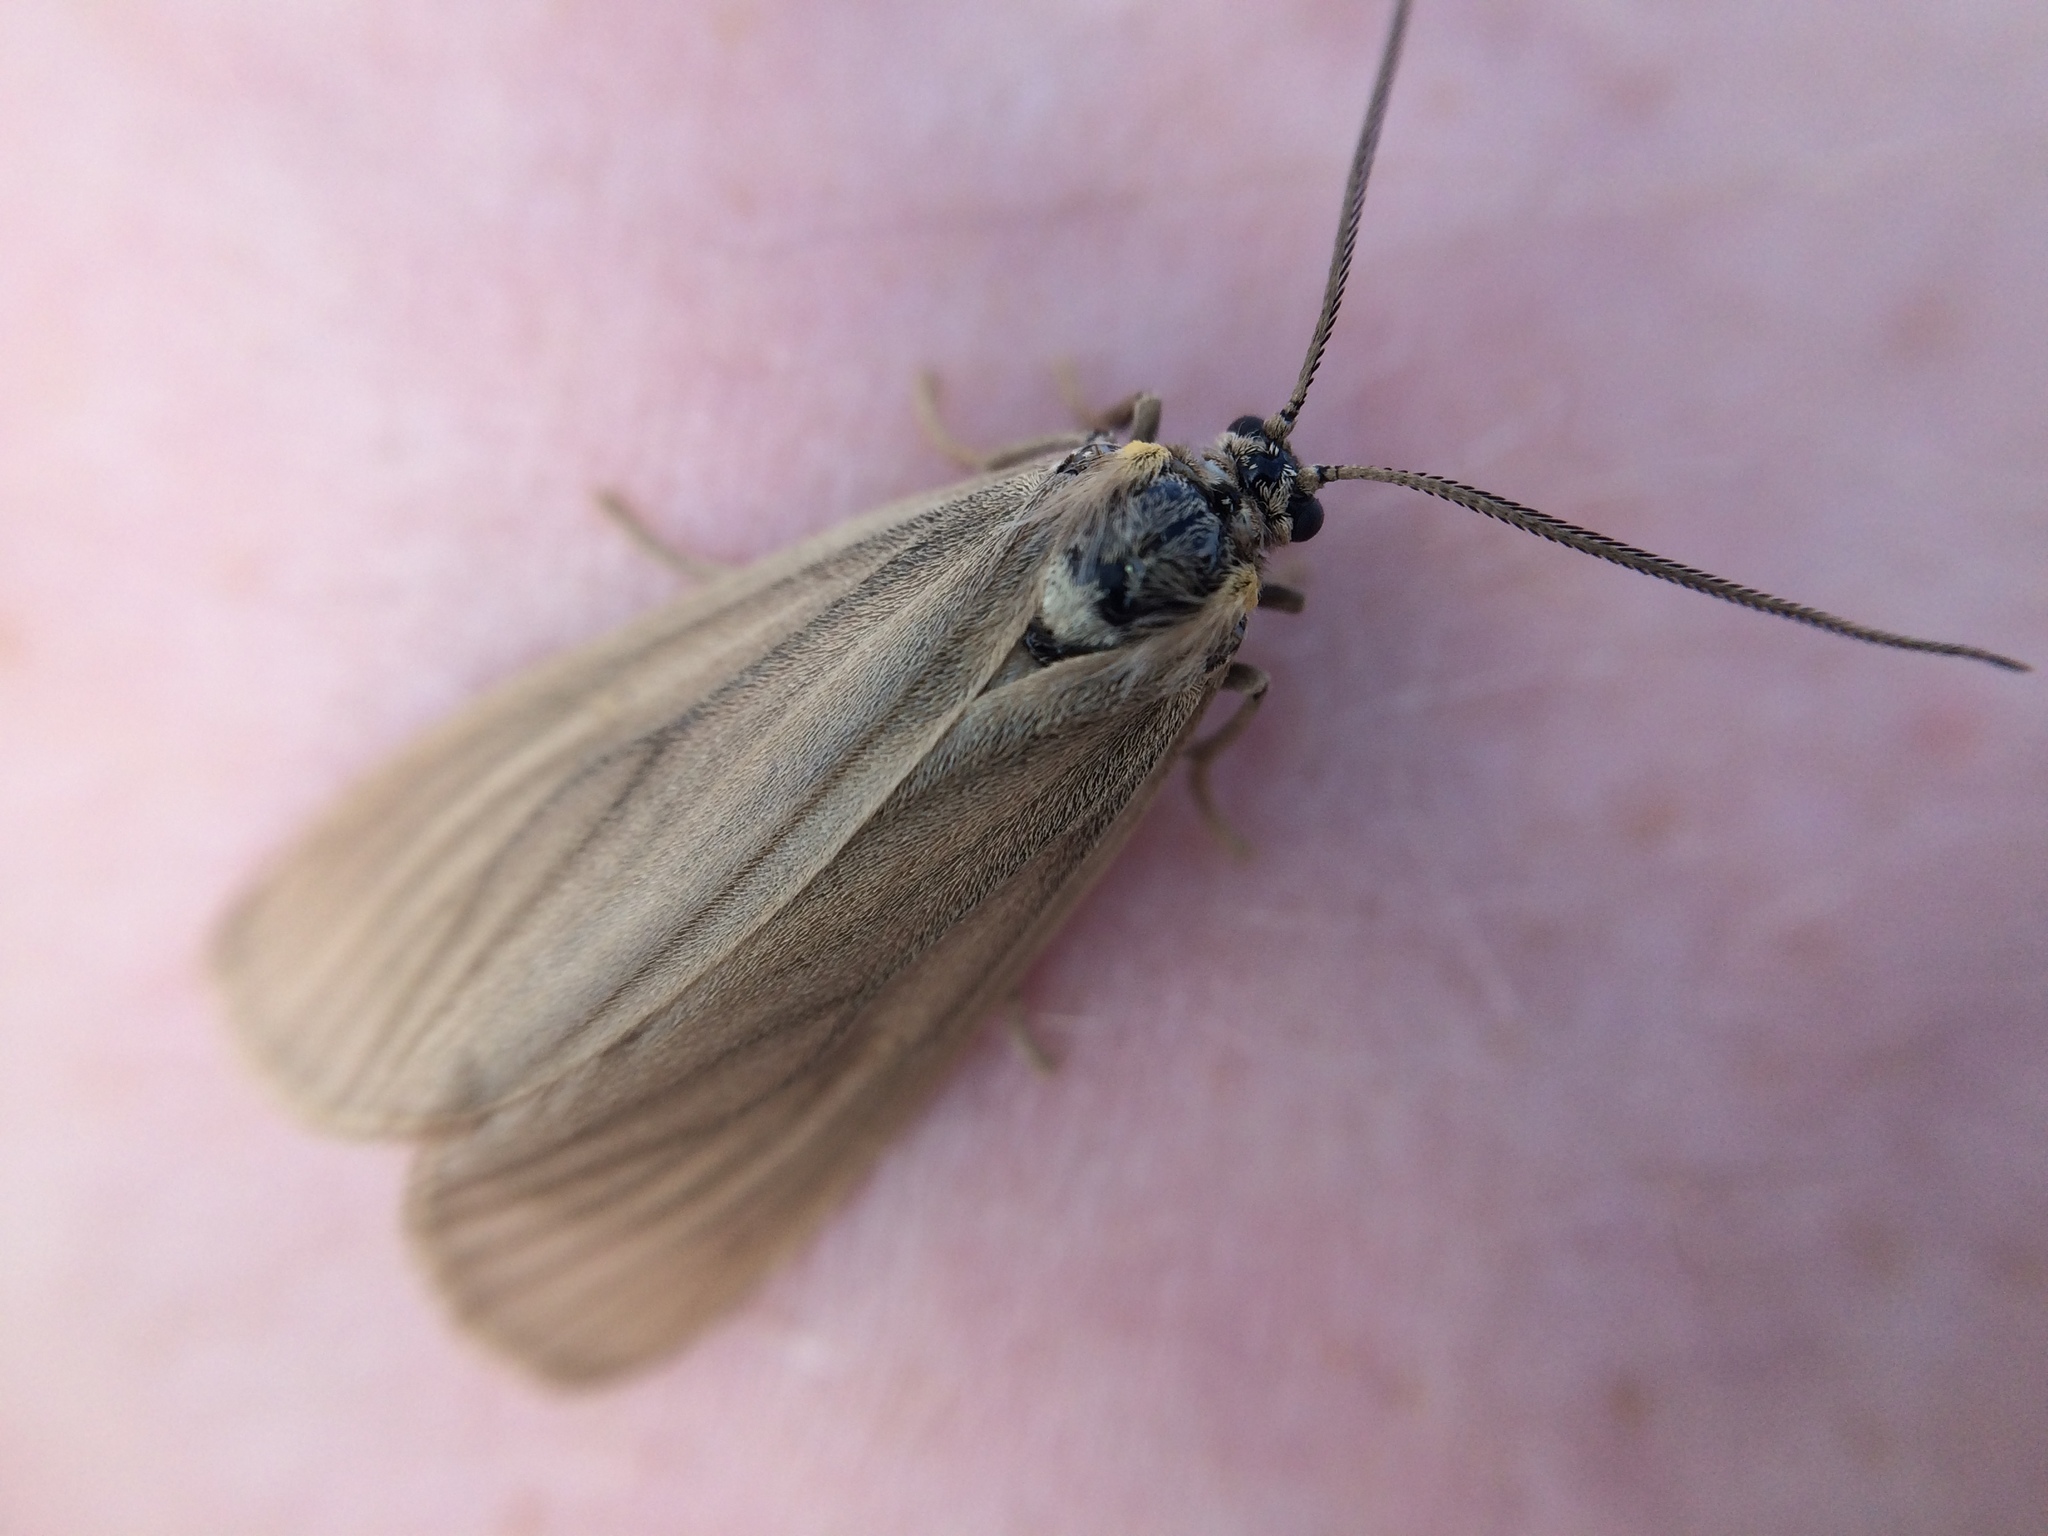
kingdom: Animalia
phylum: Arthropoda
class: Insecta
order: Lepidoptera
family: Notodontidae
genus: Phryganidia
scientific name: Phryganidia californica
